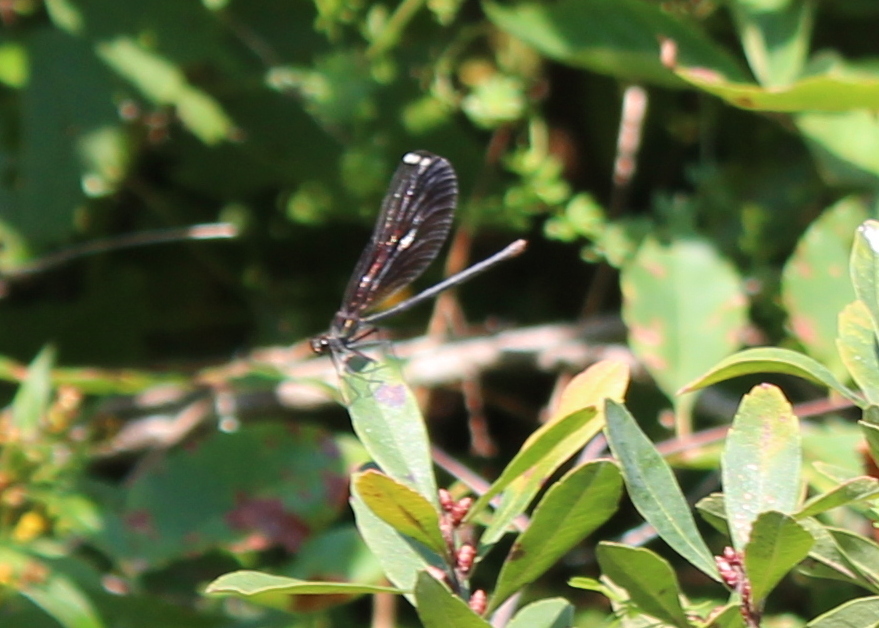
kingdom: Animalia
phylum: Arthropoda
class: Insecta
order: Odonata
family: Calopterygidae
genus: Calopteryx
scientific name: Calopteryx maculata
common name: Ebony jewelwing
